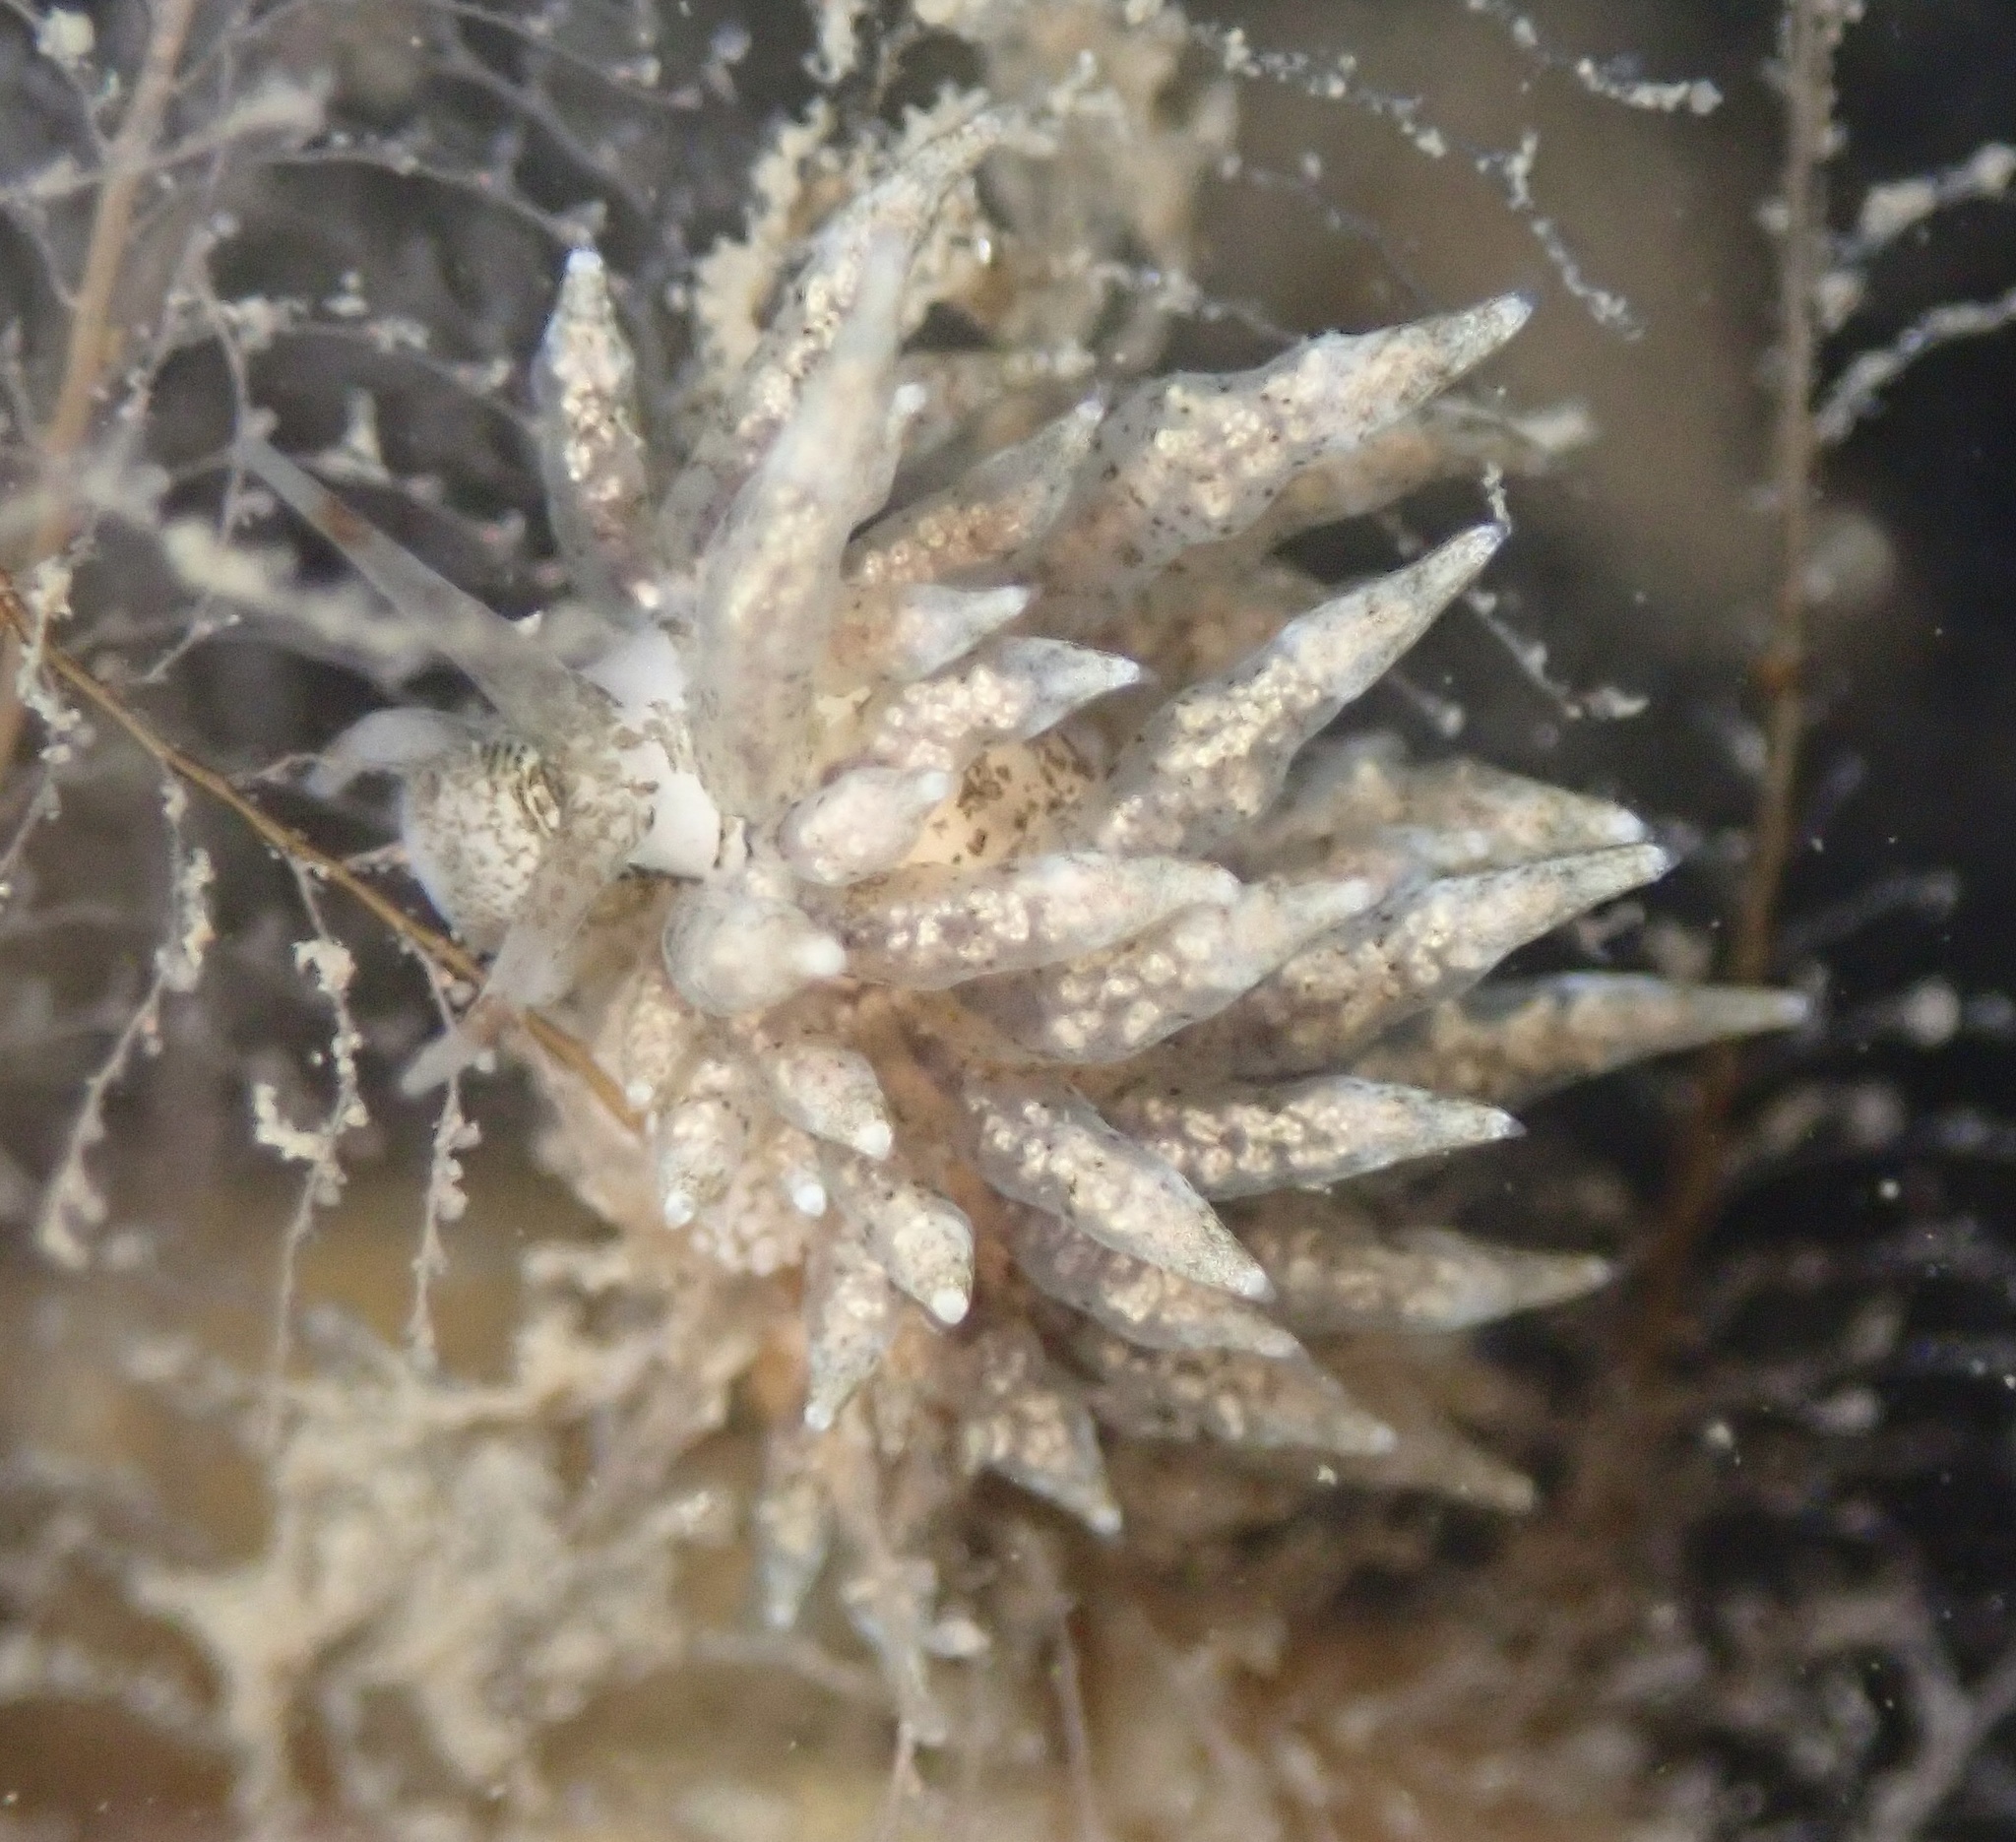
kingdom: Animalia
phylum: Mollusca
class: Gastropoda
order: Nudibranchia
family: Eubranchidae
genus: Eubranchus
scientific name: Eubranchus rustyus
